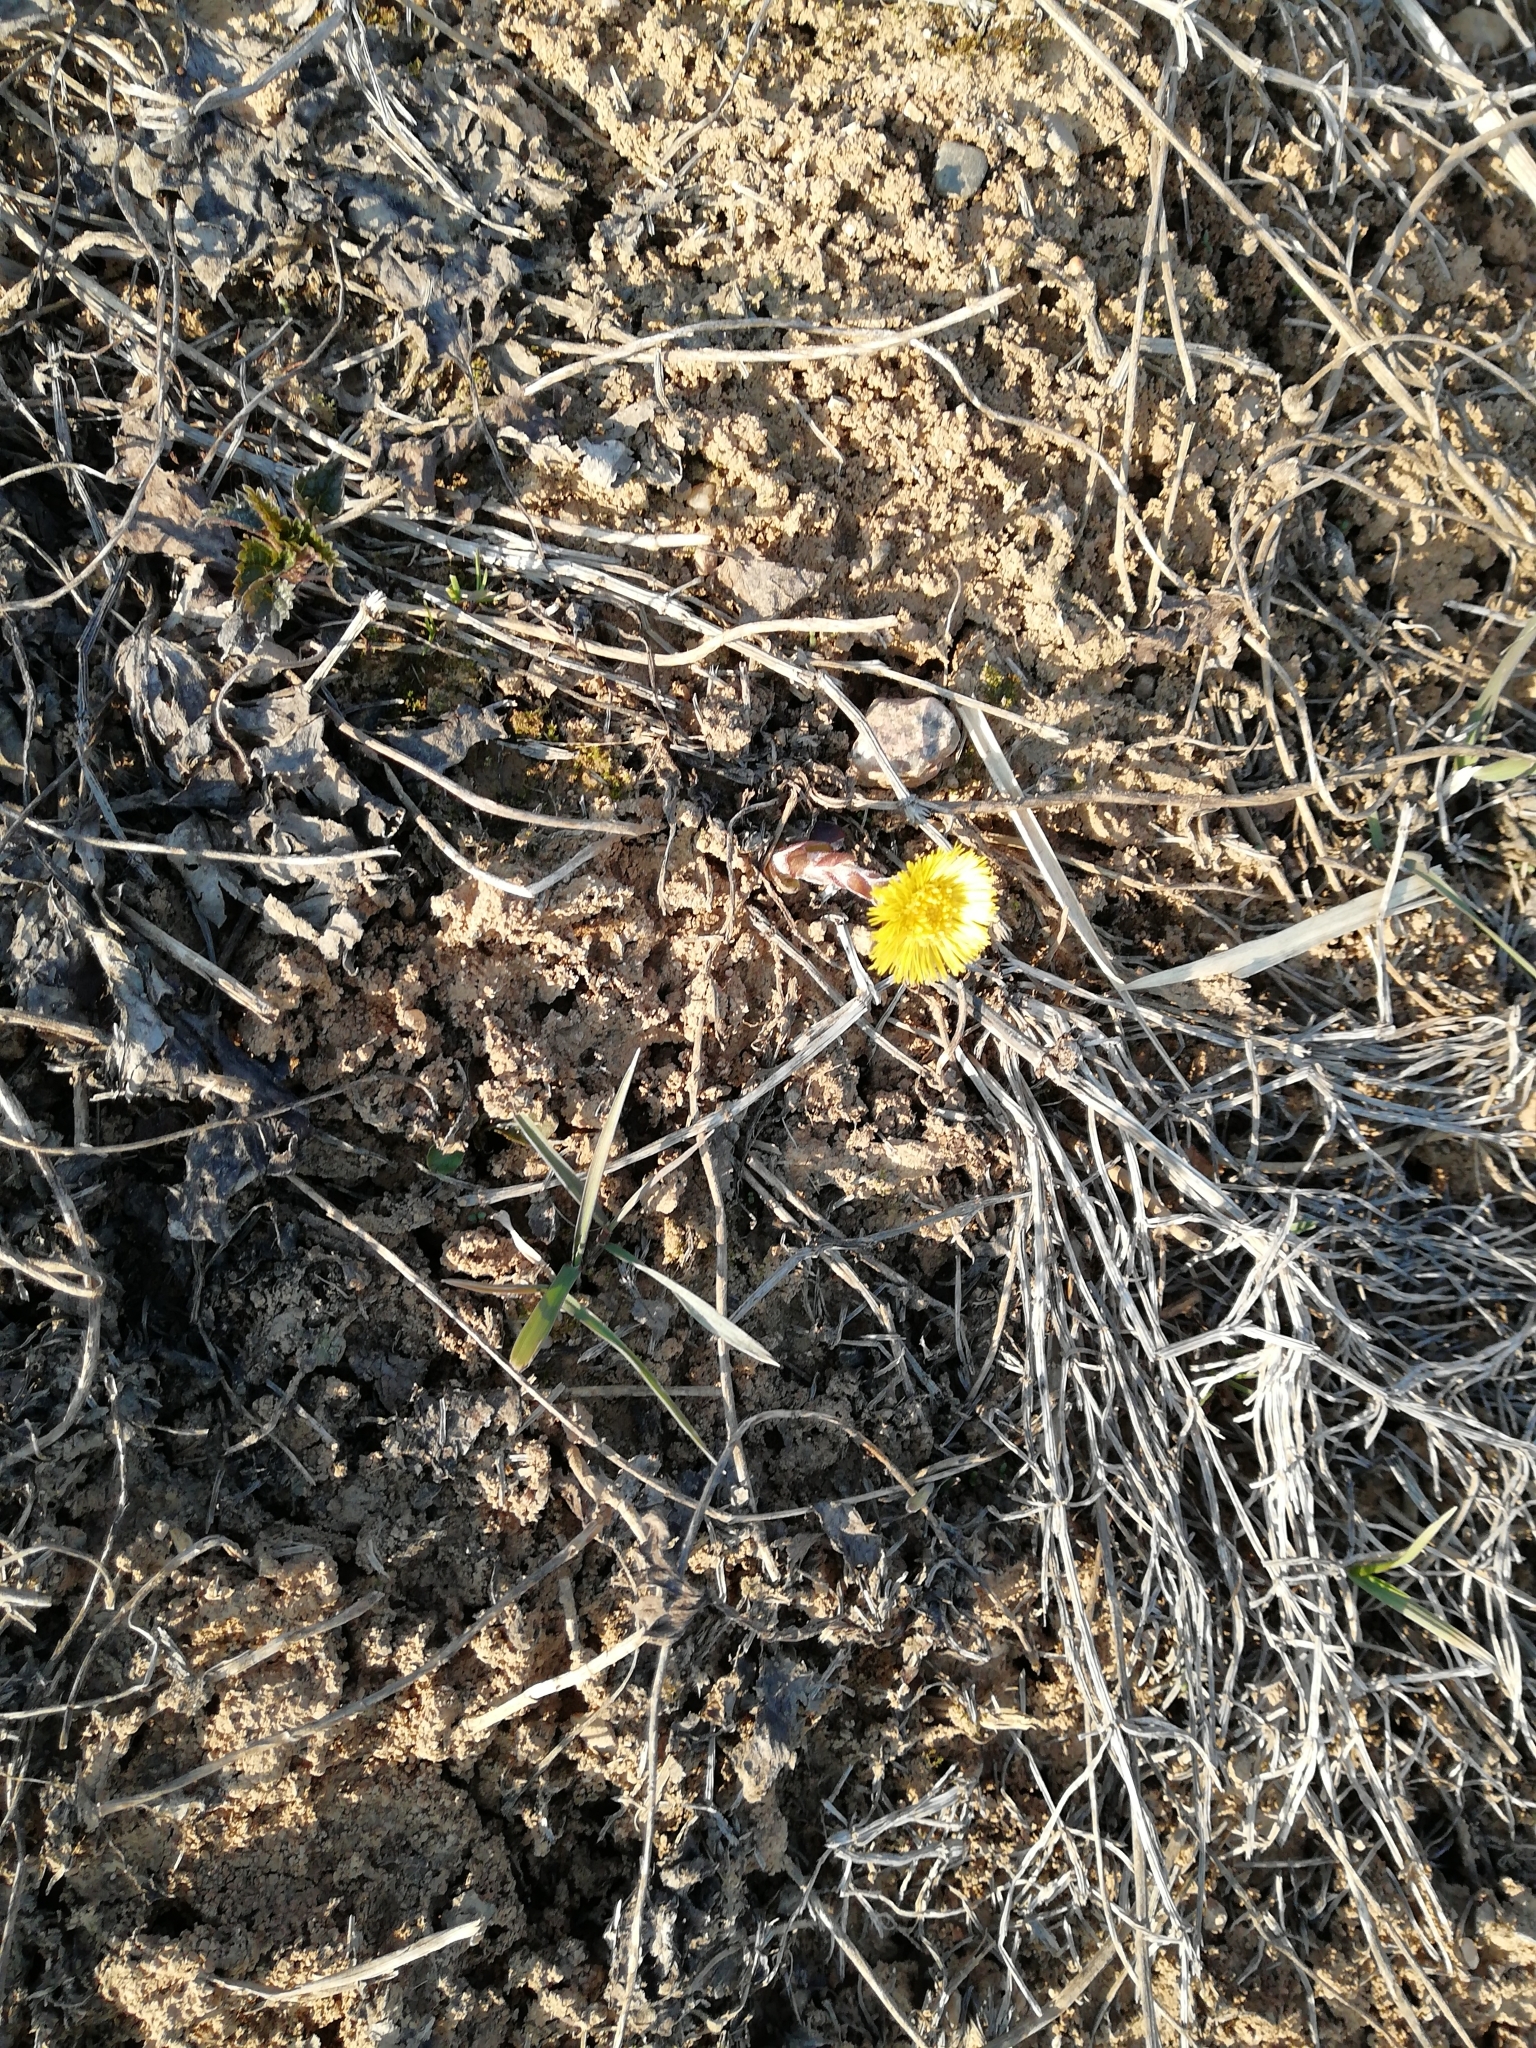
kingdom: Plantae
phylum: Tracheophyta
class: Magnoliopsida
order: Asterales
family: Asteraceae
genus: Tussilago
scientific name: Tussilago farfara
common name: Coltsfoot
